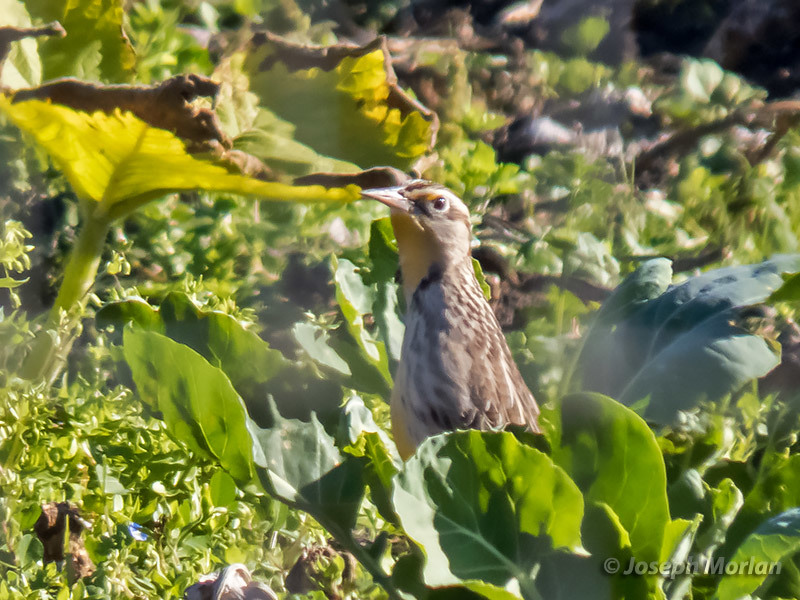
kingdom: Animalia
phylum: Chordata
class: Aves
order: Passeriformes
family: Icteridae
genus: Sturnella
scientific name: Sturnella neglecta
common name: Western meadowlark
